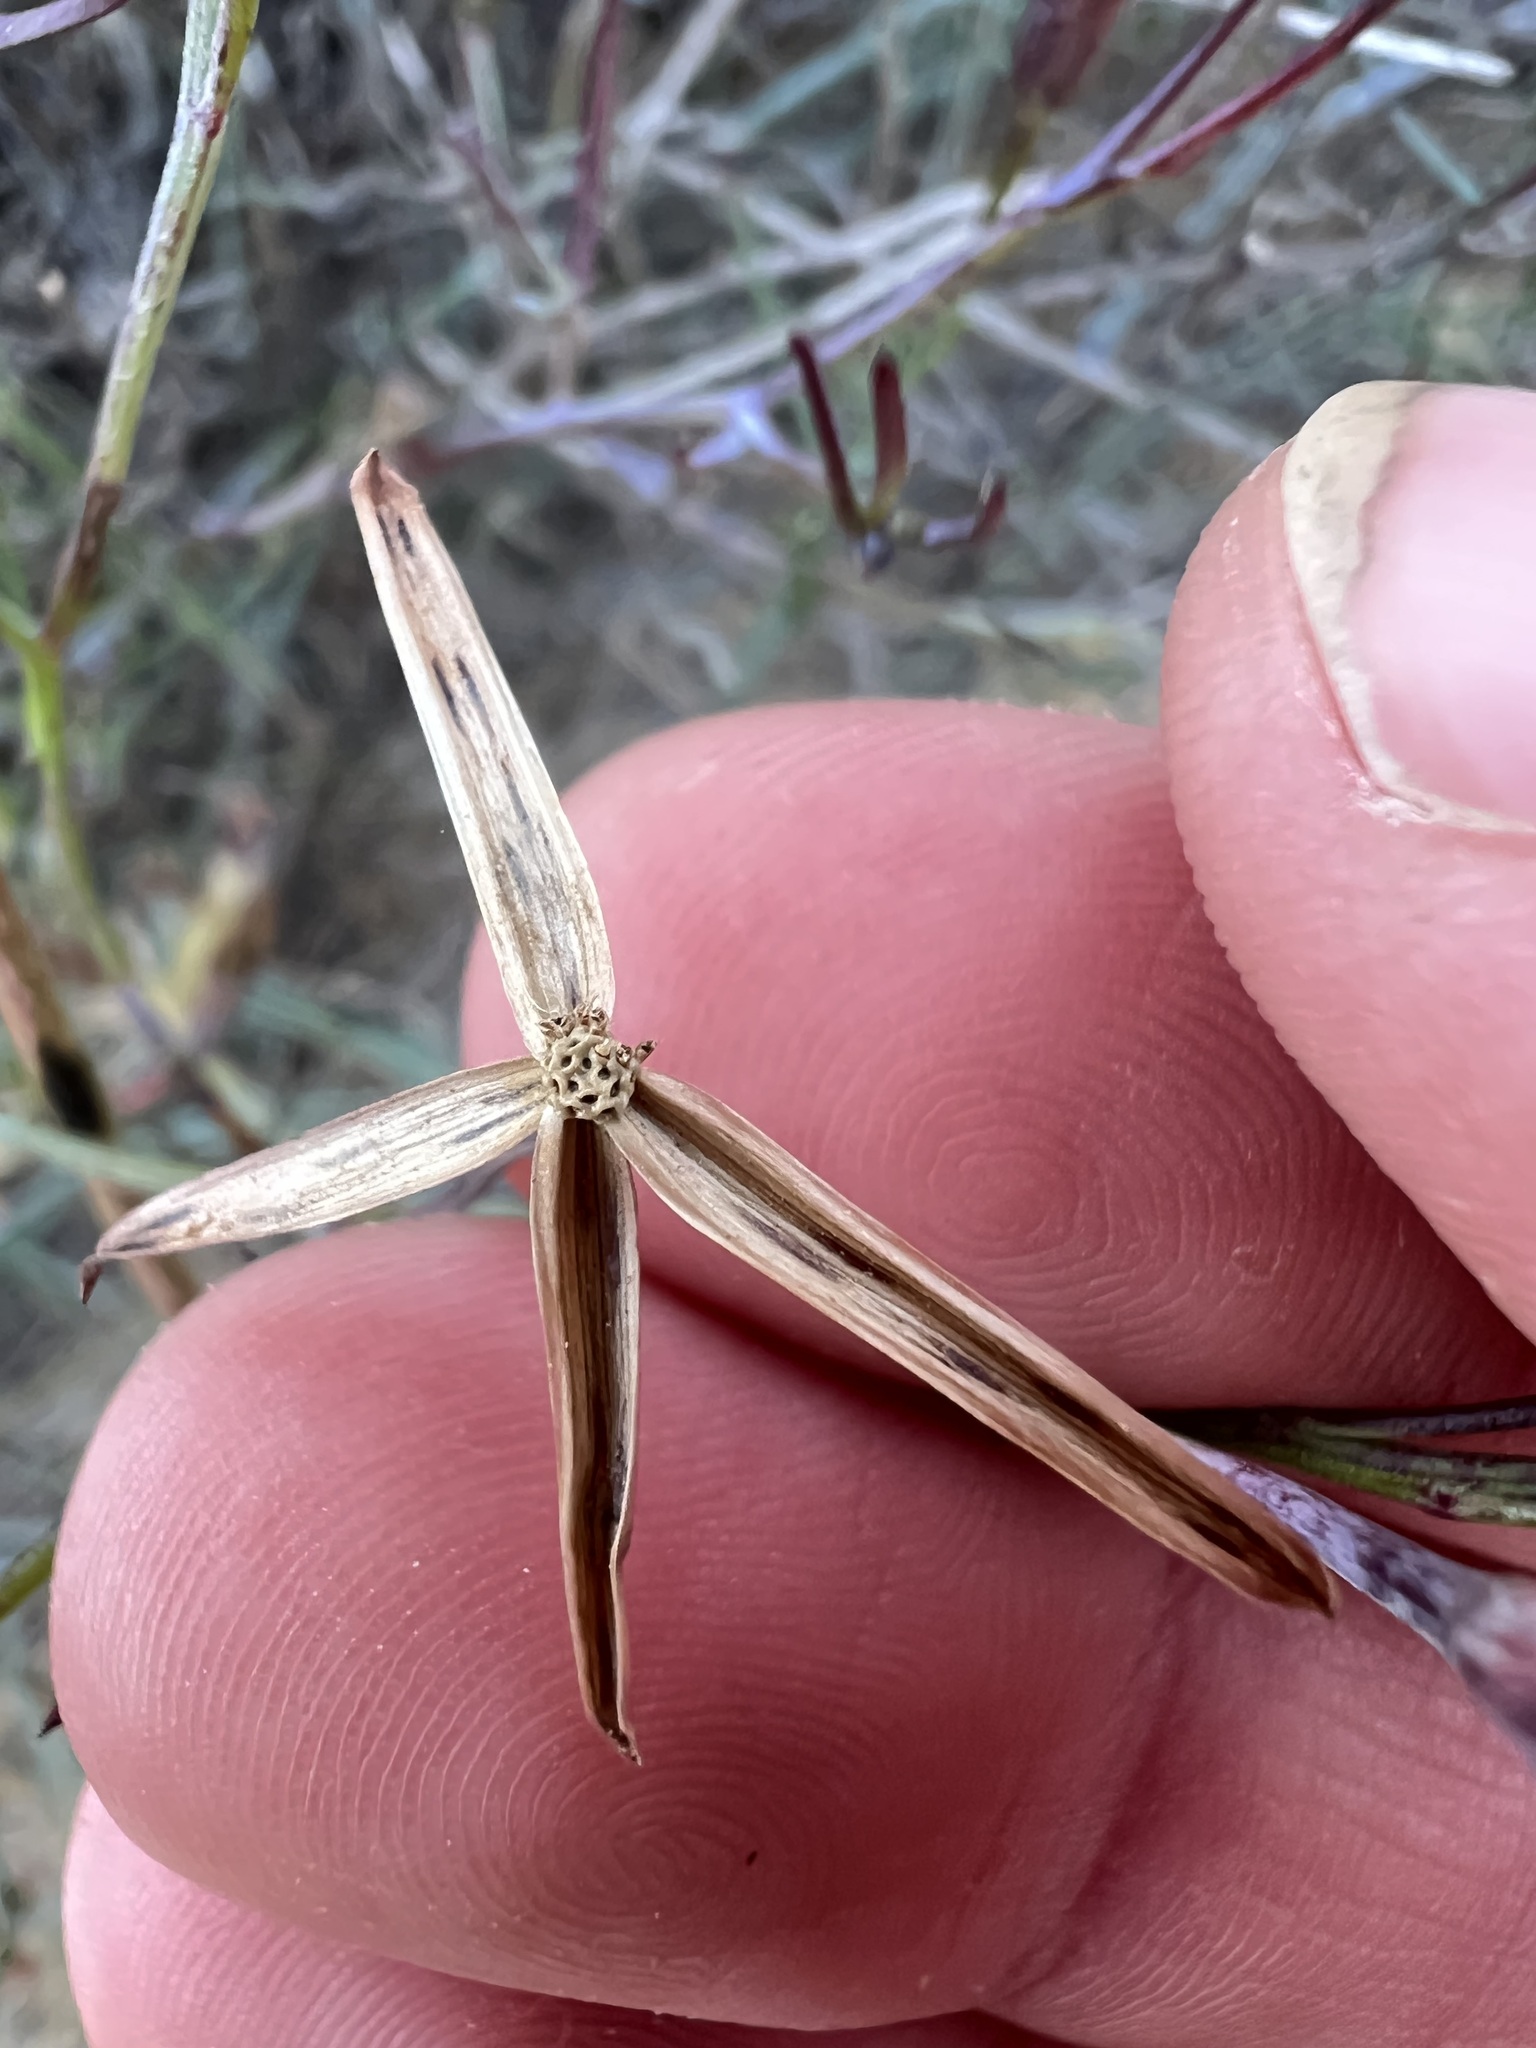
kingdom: Plantae
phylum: Tracheophyta
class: Magnoliopsida
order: Asterales
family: Asteraceae
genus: Porophyllum
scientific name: Porophyllum gracile
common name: Odora
